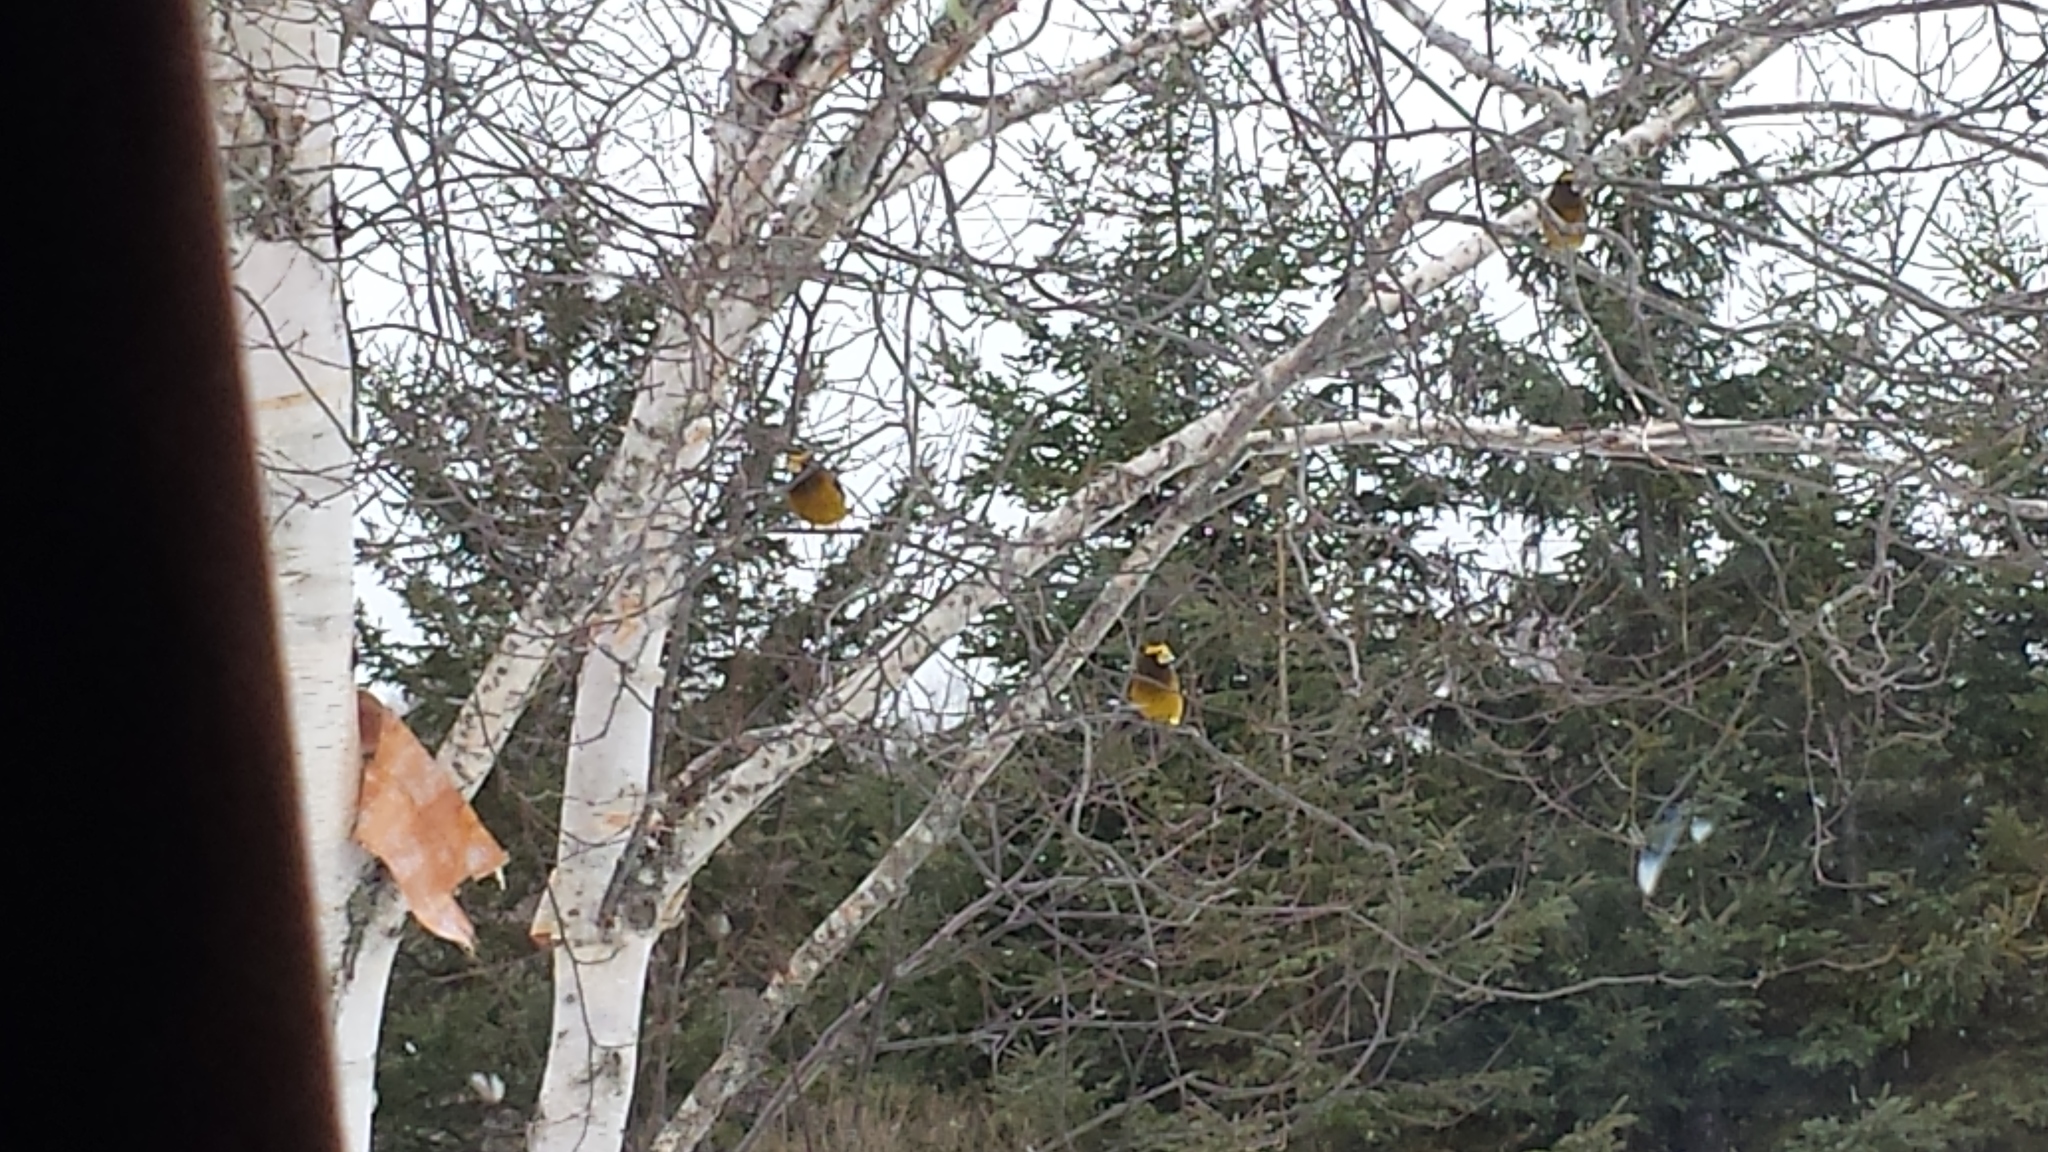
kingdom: Animalia
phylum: Chordata
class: Aves
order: Passeriformes
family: Fringillidae
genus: Hesperiphona
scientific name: Hesperiphona vespertina
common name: Evening grosbeak
